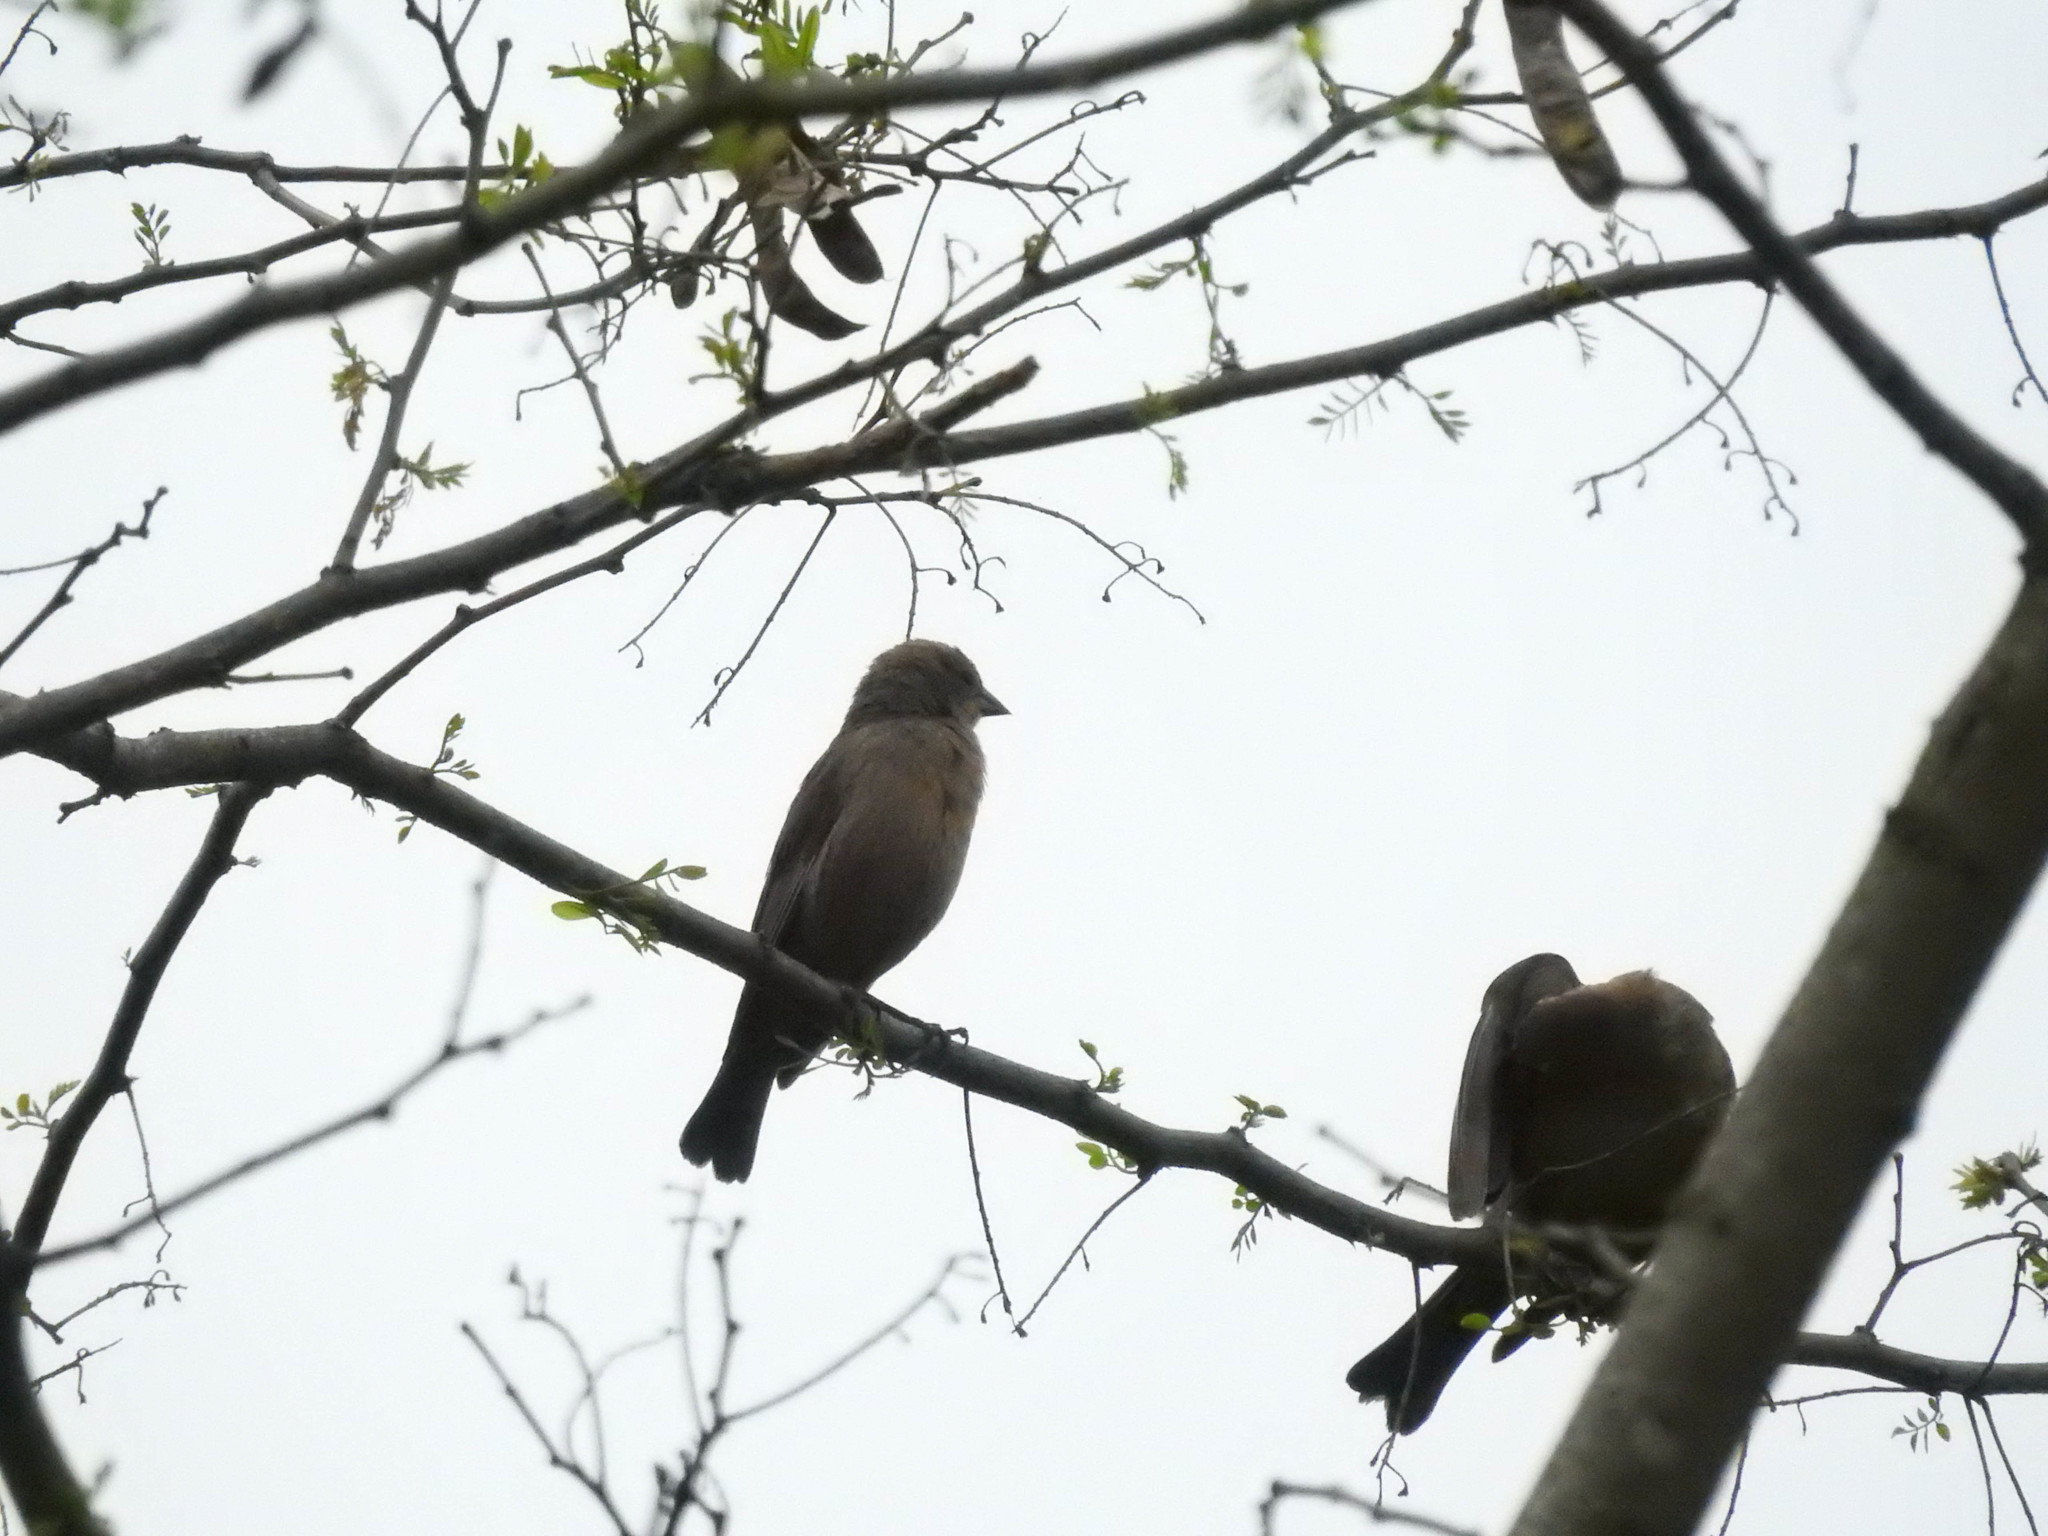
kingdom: Animalia
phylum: Chordata
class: Aves
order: Passeriformes
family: Icteridae
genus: Molothrus
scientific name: Molothrus ater
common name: Brown-headed cowbird
